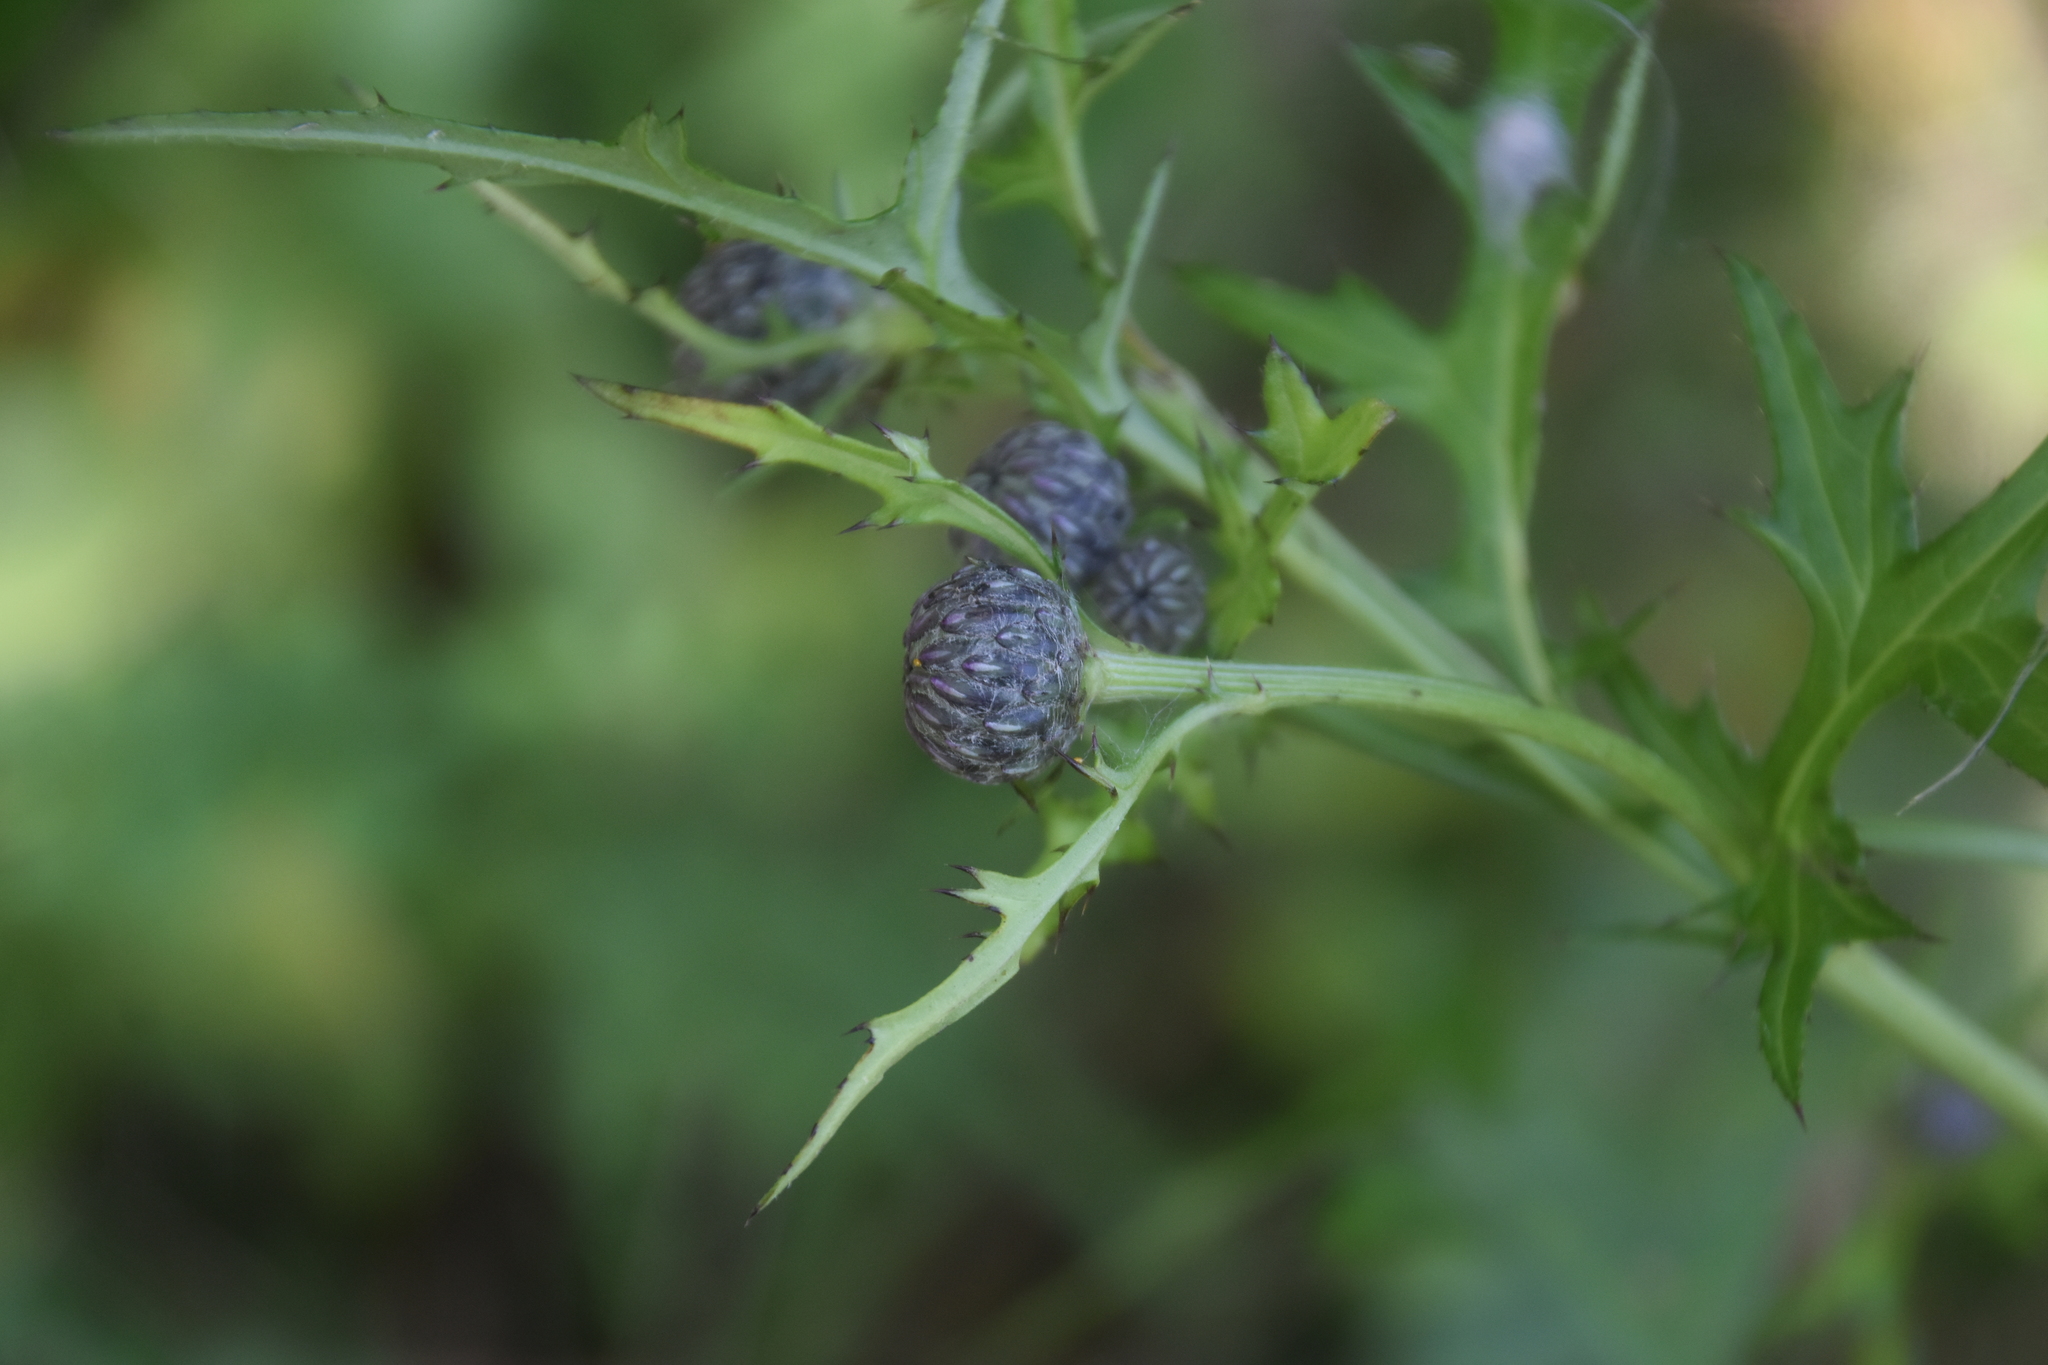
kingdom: Plantae
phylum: Tracheophyta
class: Magnoliopsida
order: Asterales
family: Asteraceae
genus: Cirsium
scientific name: Cirsium muticum
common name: Dunce-nettle
